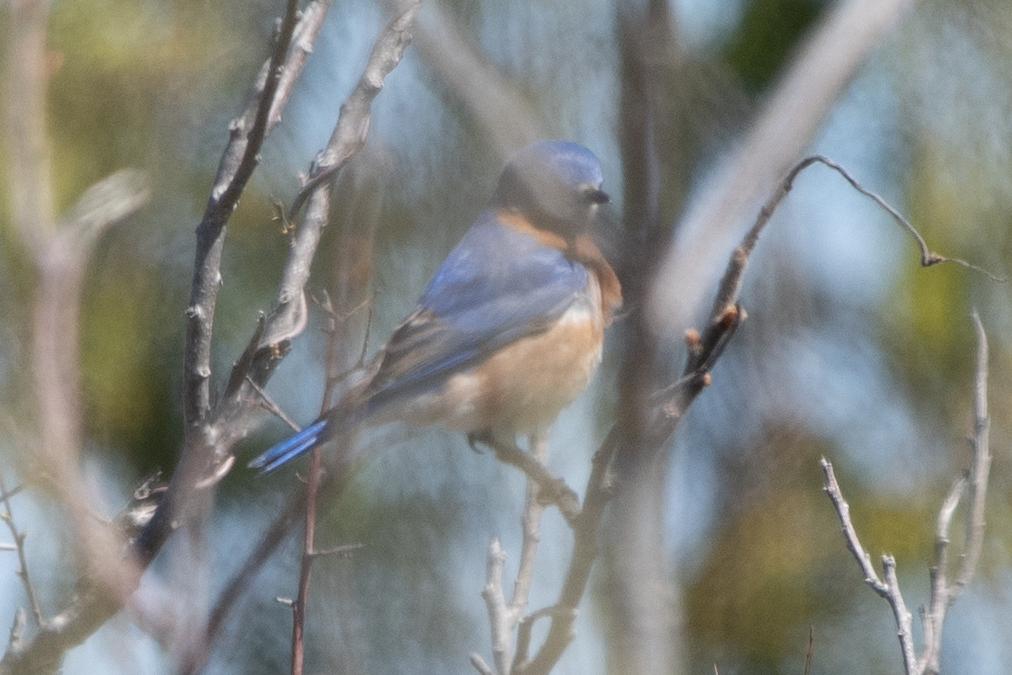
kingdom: Animalia
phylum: Chordata
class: Aves
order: Passeriformes
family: Turdidae
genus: Sialia
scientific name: Sialia sialis
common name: Eastern bluebird
